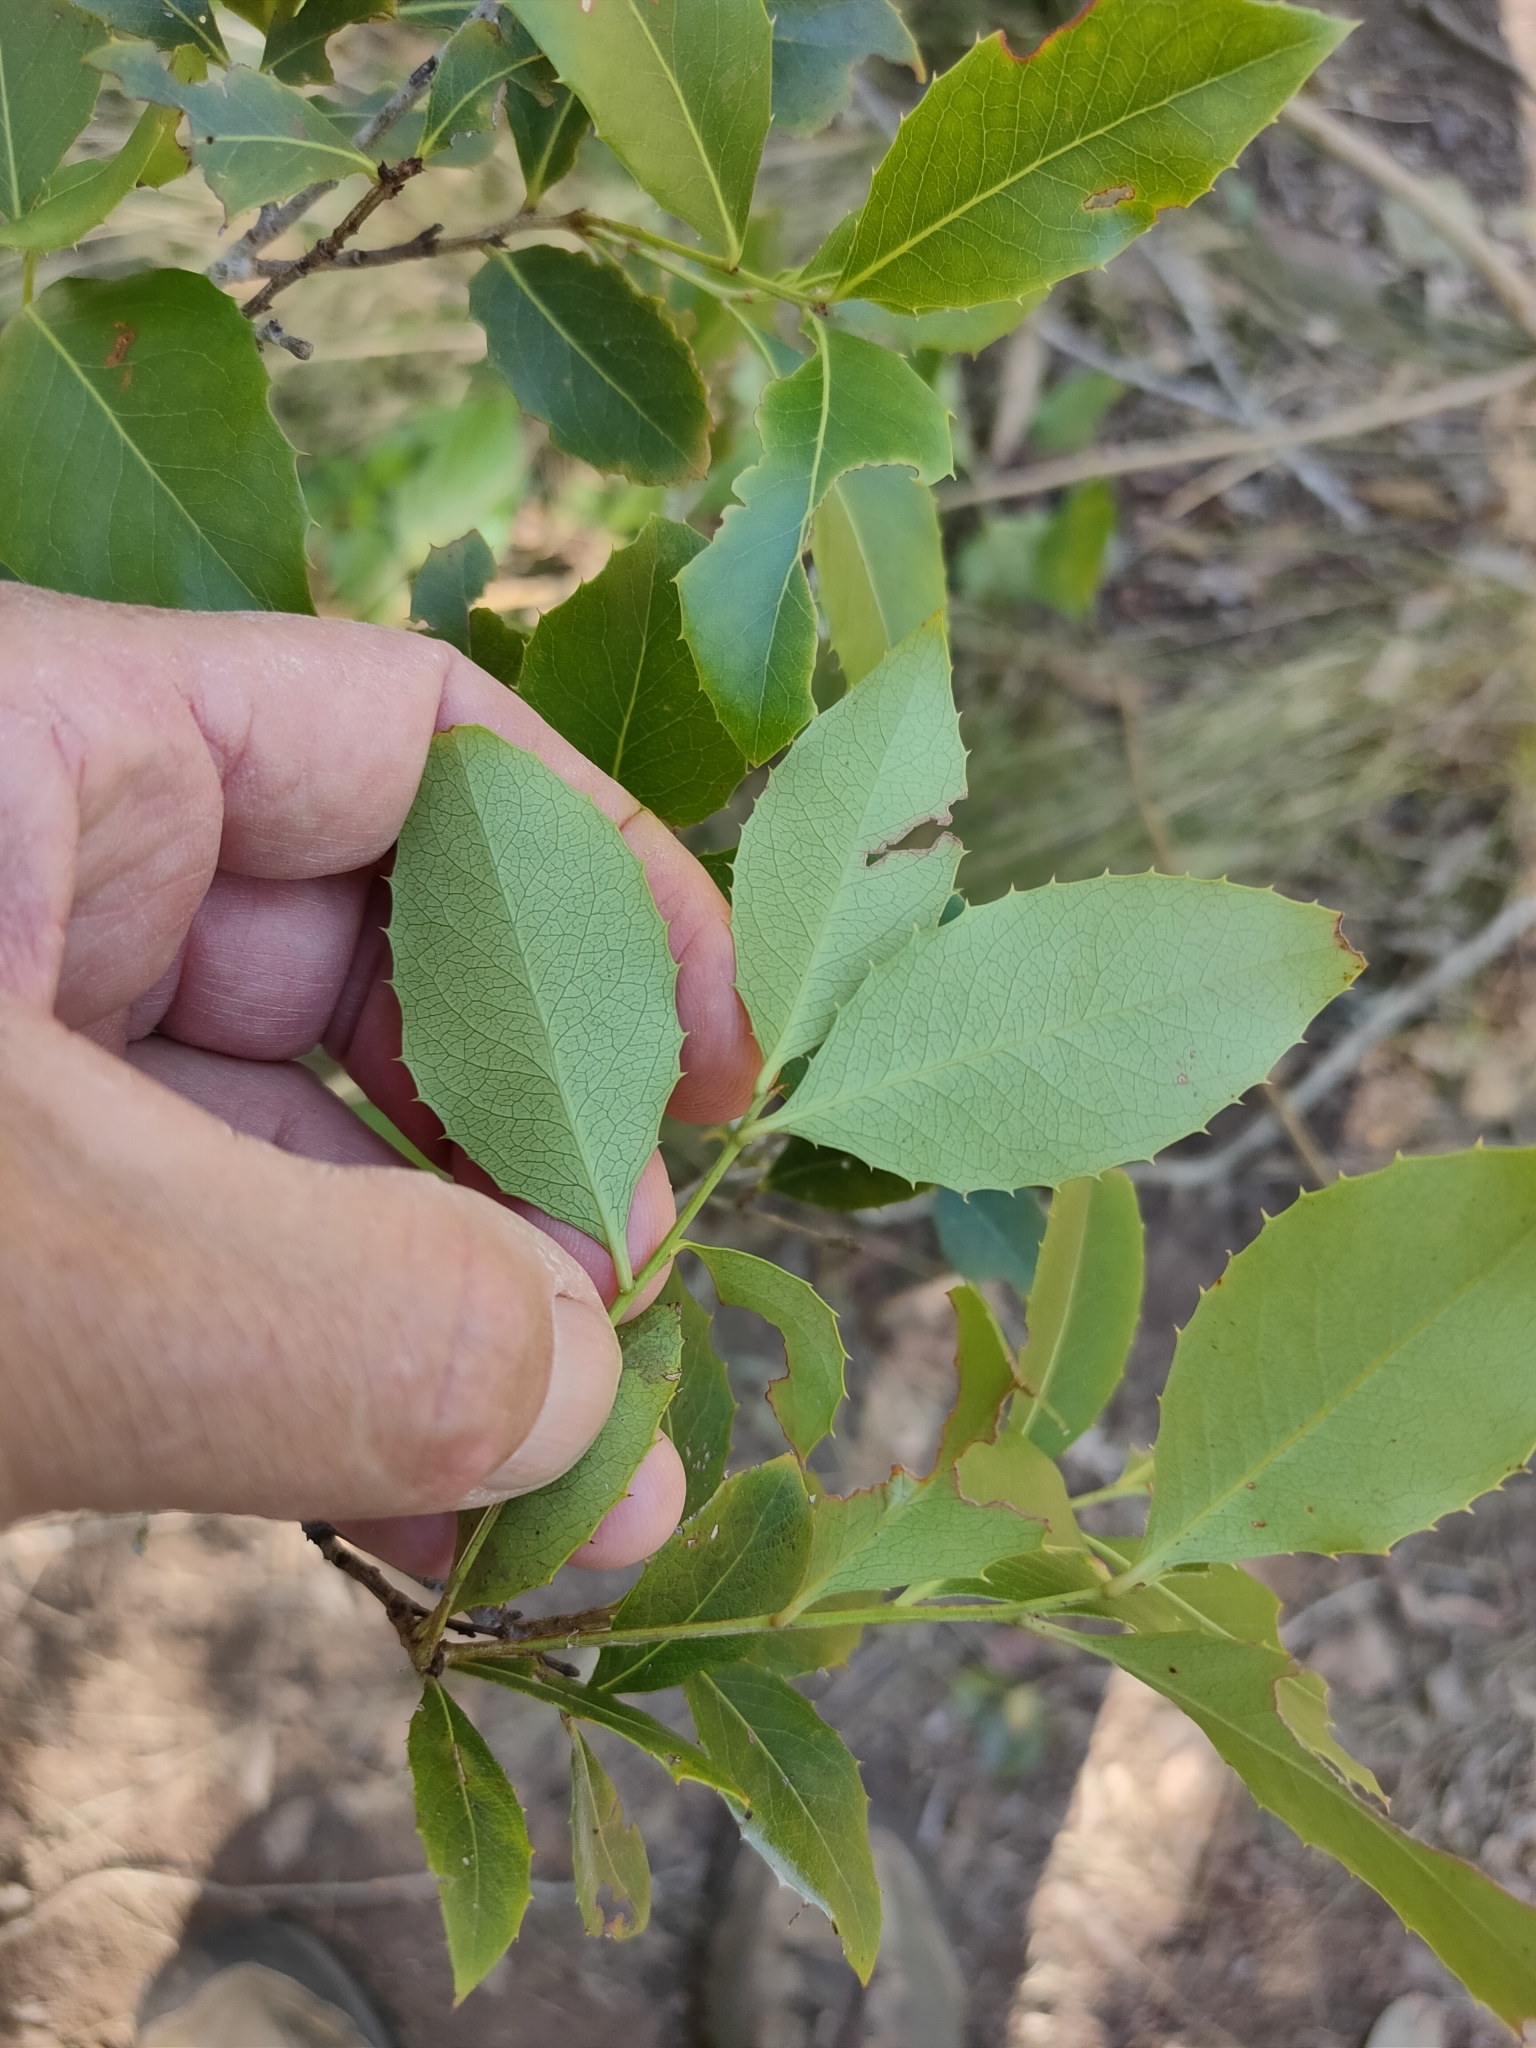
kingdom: Plantae
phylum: Tracheophyta
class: Magnoliopsida
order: Celastrales
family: Celastraceae
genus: Denhamia
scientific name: Denhamia bilocularis
